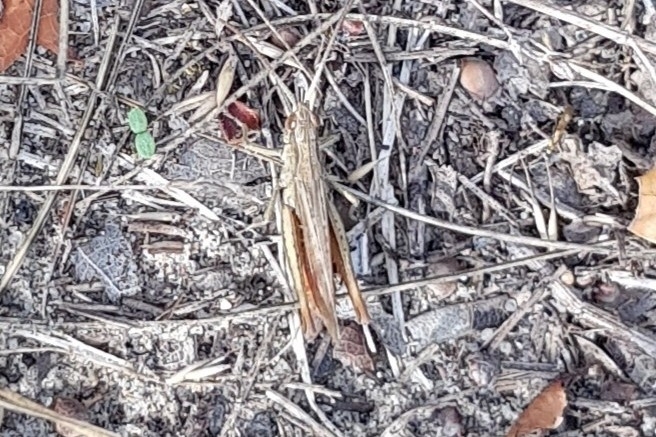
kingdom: Animalia
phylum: Arthropoda
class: Insecta
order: Orthoptera
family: Acrididae
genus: Chorthippus
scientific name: Chorthippus dorsatus
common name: Steppe grasshopper
